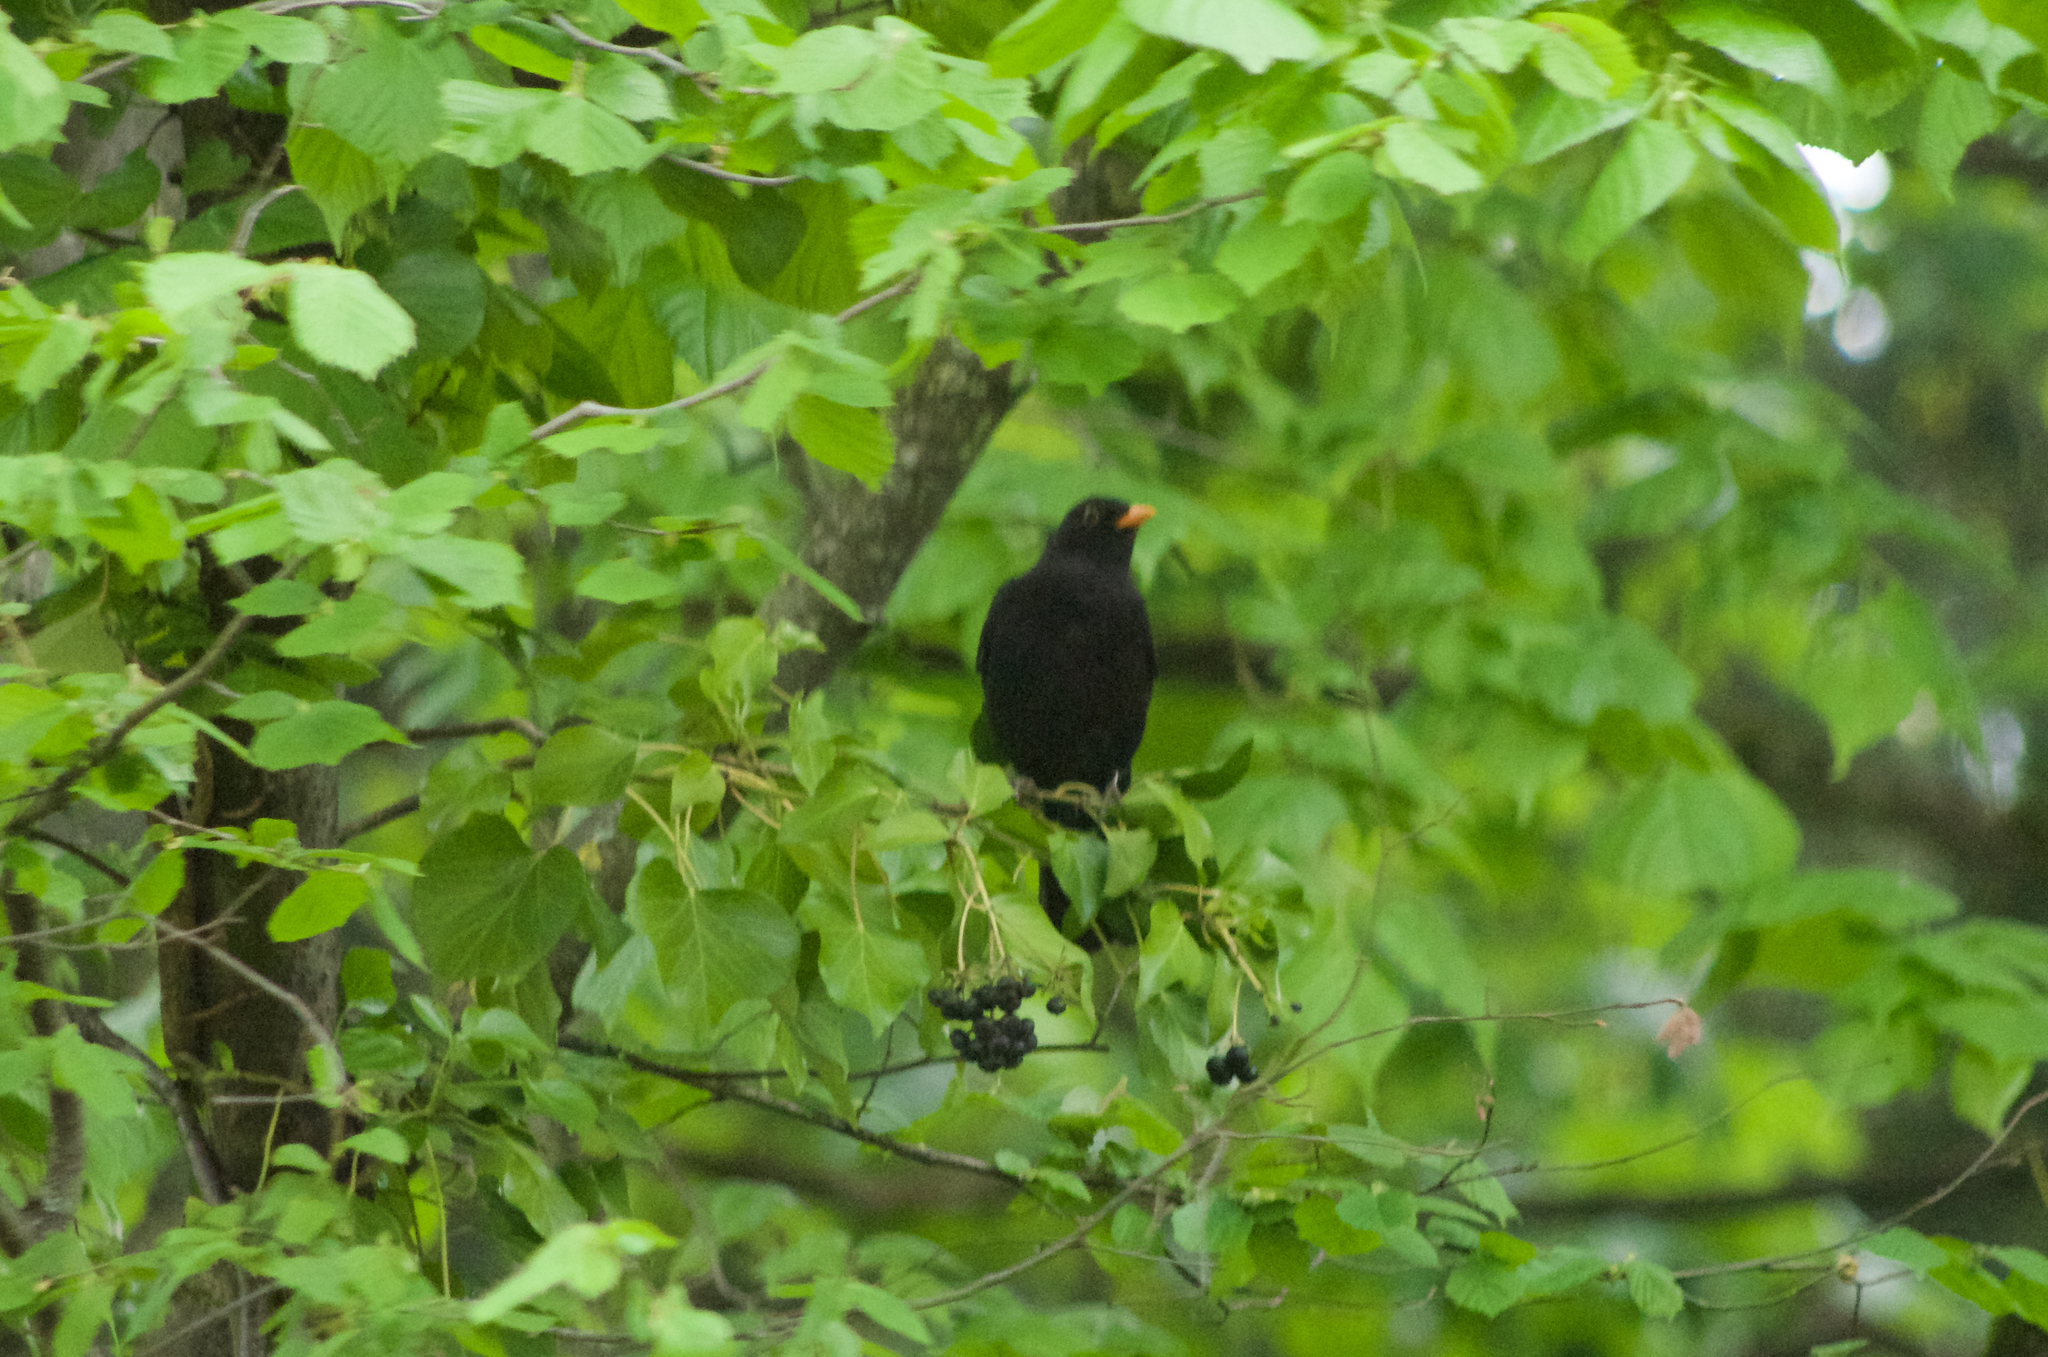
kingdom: Animalia
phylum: Chordata
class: Aves
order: Passeriformes
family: Turdidae
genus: Turdus
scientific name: Turdus merula
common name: Common blackbird
